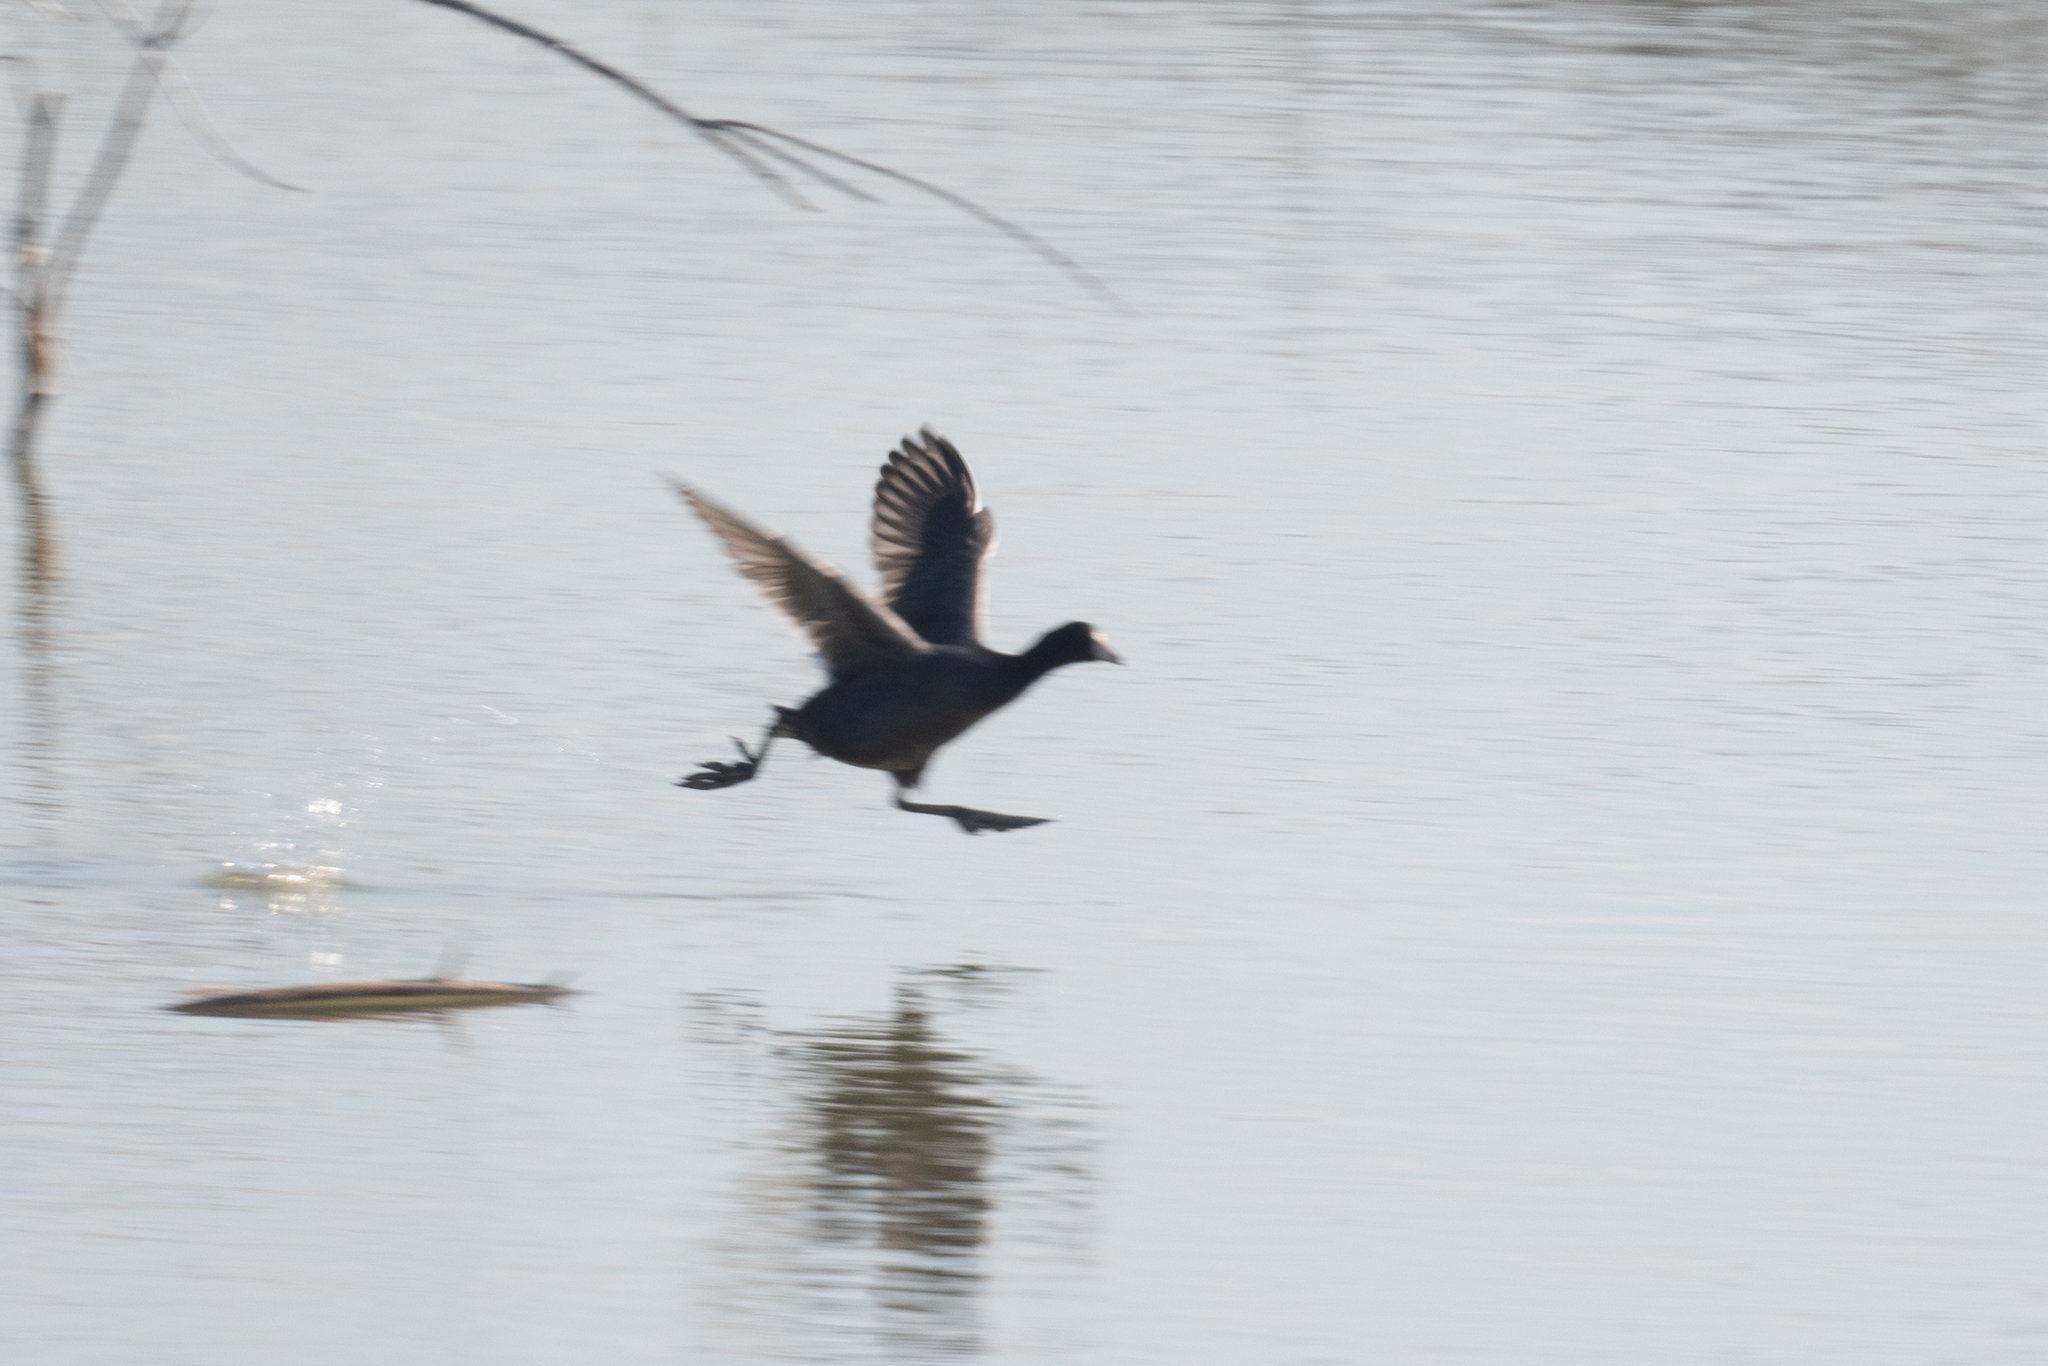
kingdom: Animalia
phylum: Chordata
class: Aves
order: Gruiformes
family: Rallidae
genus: Fulica
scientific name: Fulica americana
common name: American coot
